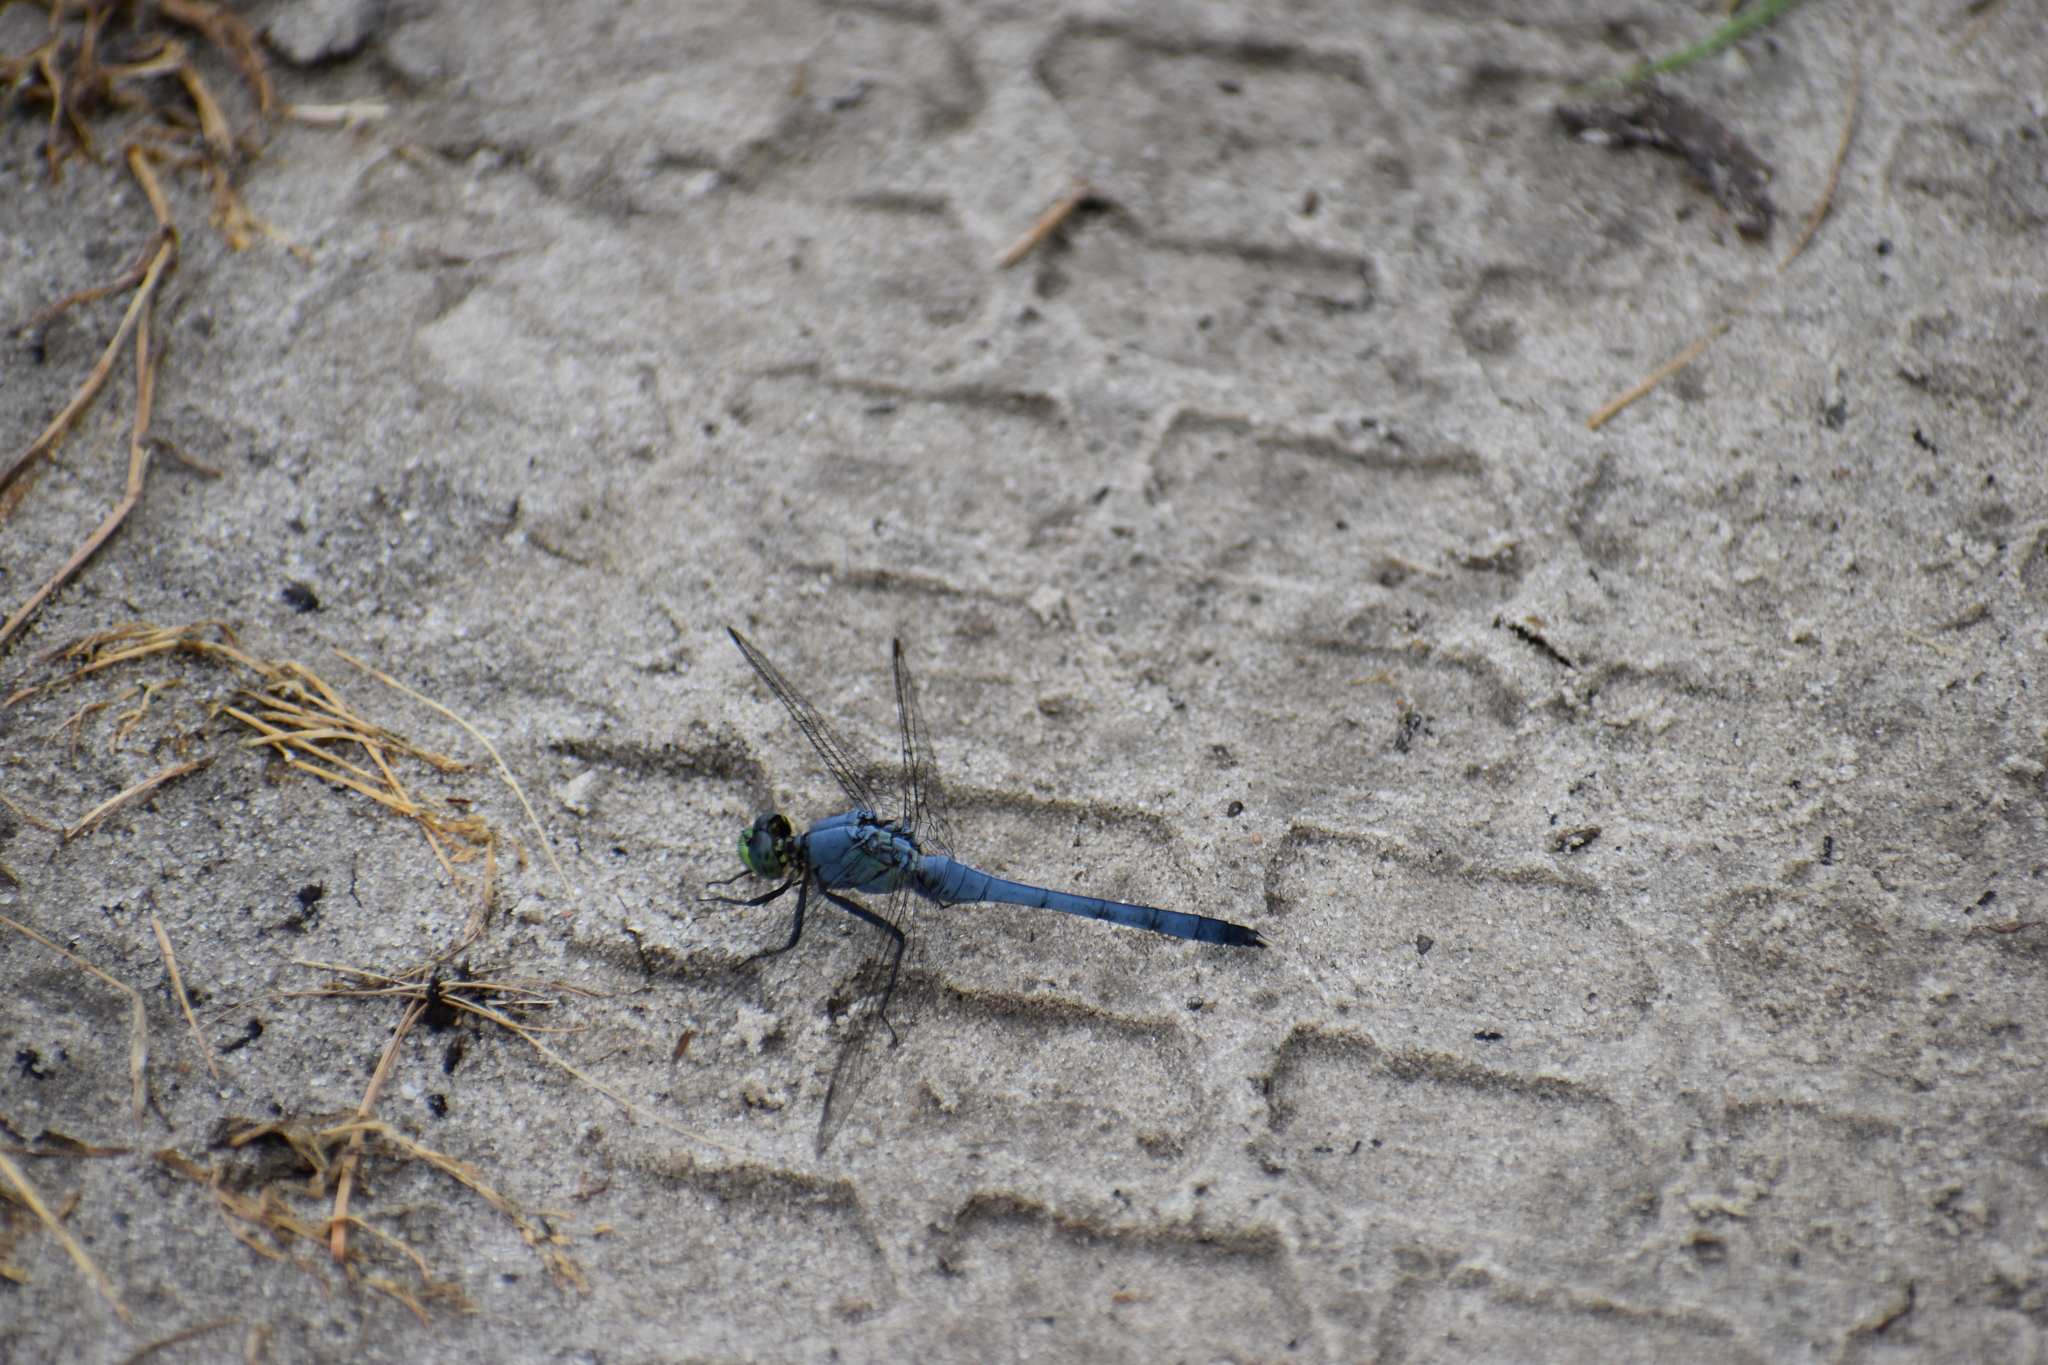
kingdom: Animalia
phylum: Arthropoda
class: Insecta
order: Odonata
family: Libellulidae
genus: Erythemis
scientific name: Erythemis simplicicollis
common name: Eastern pondhawk
